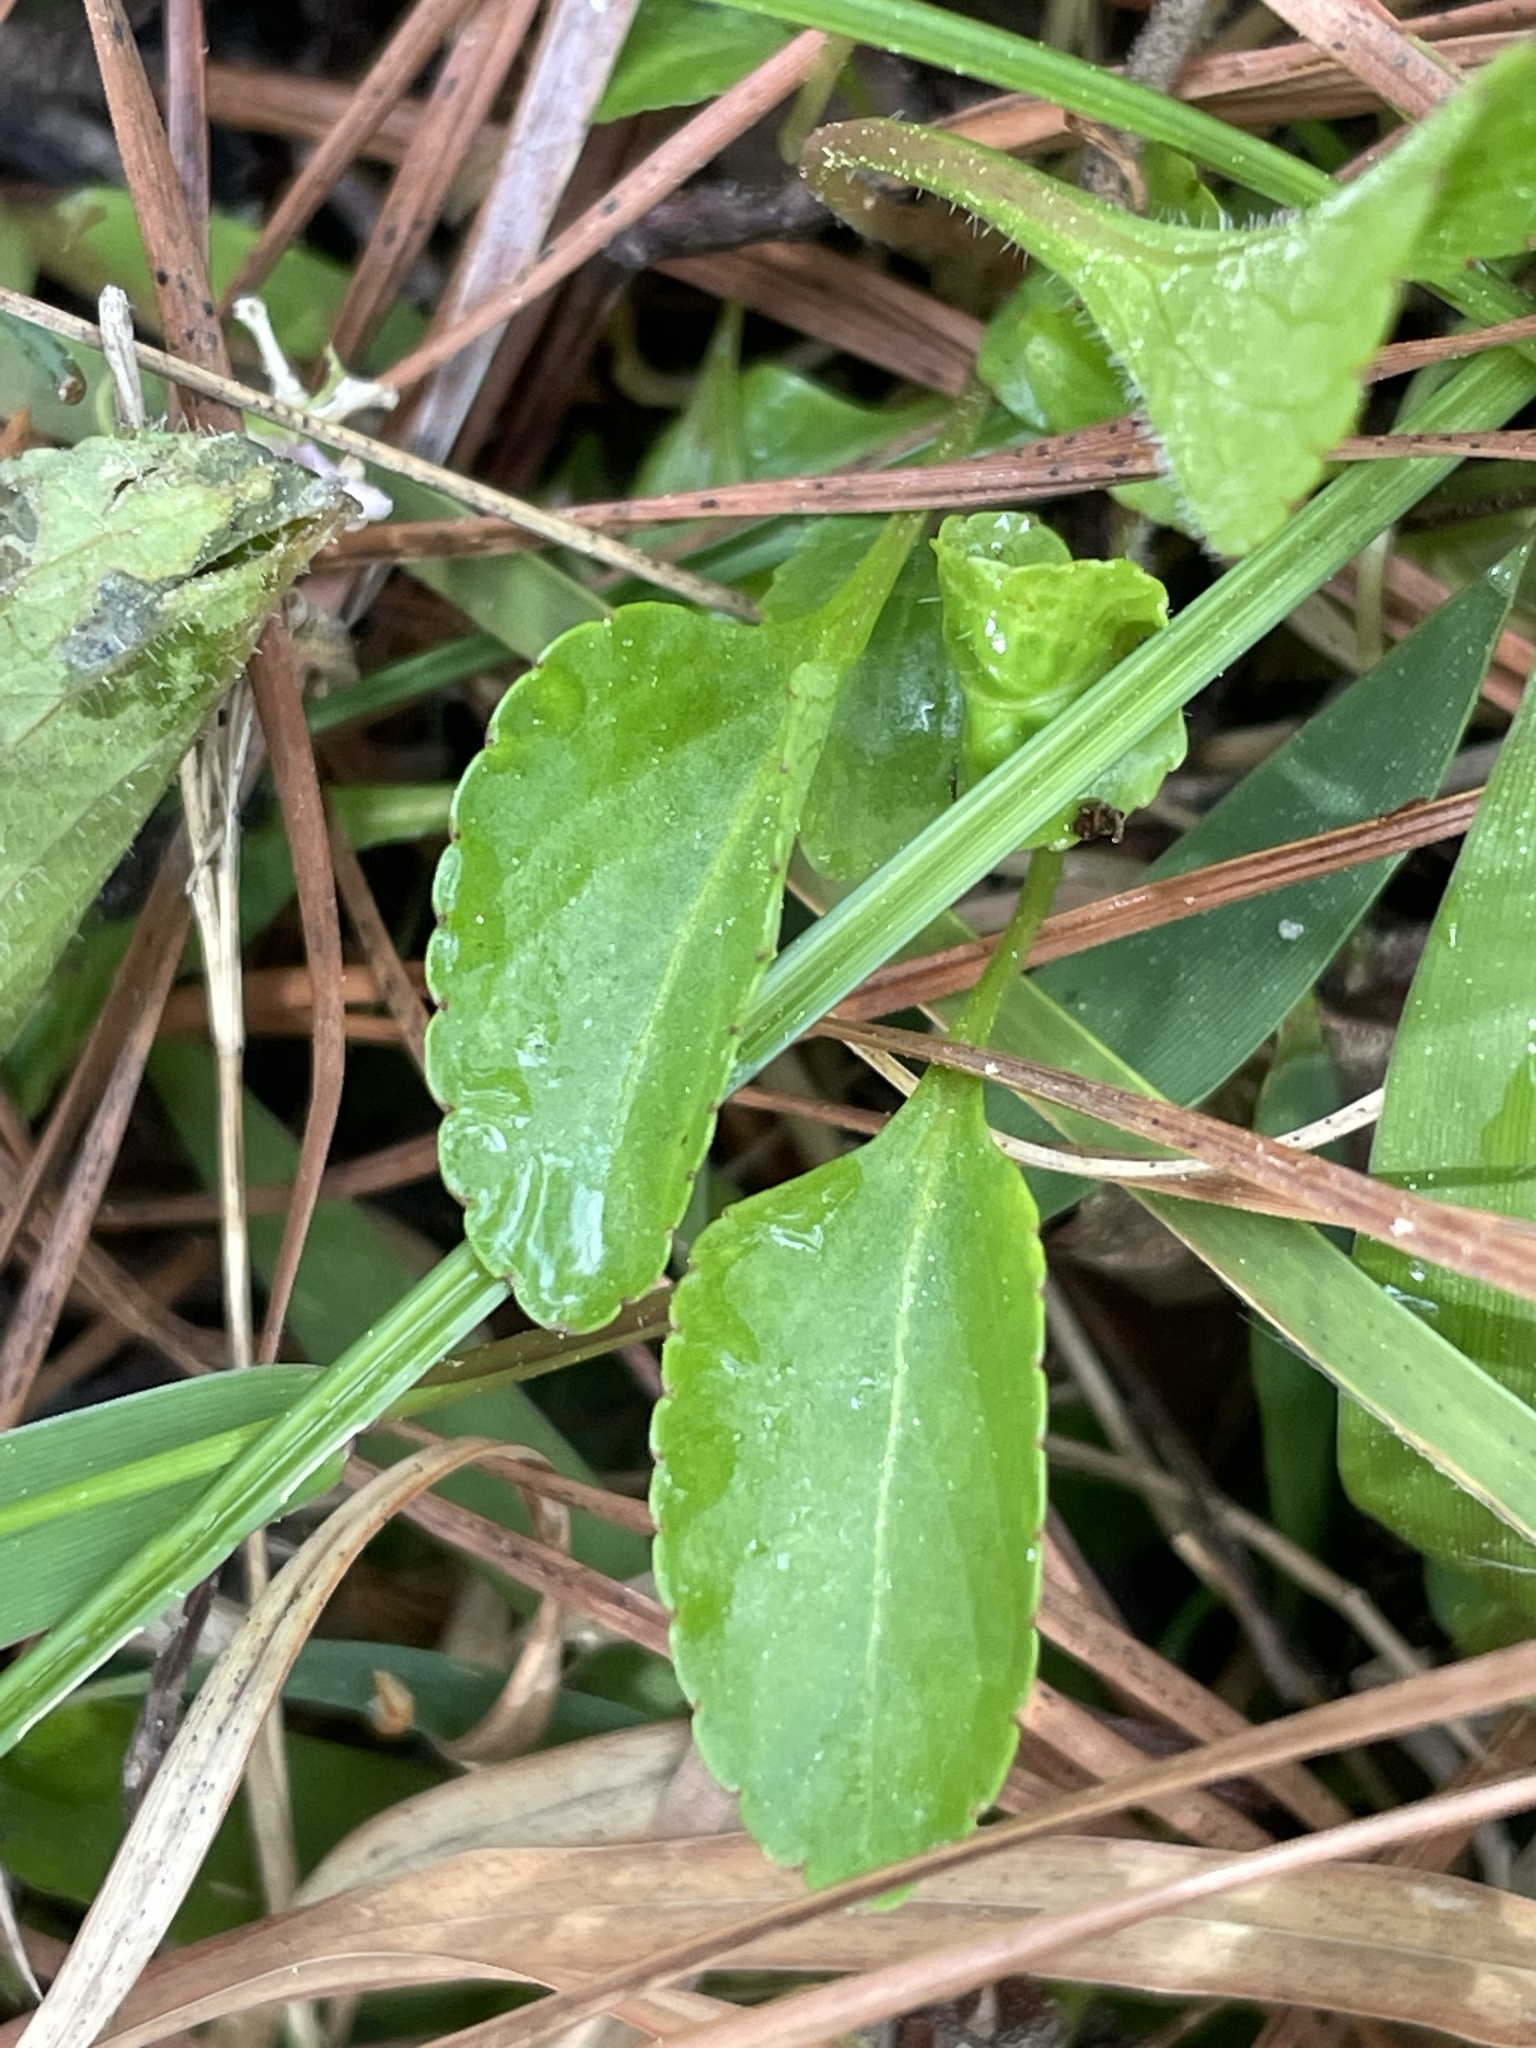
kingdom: Plantae
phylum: Tracheophyta
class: Magnoliopsida
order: Malpighiales
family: Violaceae
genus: Viola
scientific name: Viola primulifolia
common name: Primrose-leaf violet
